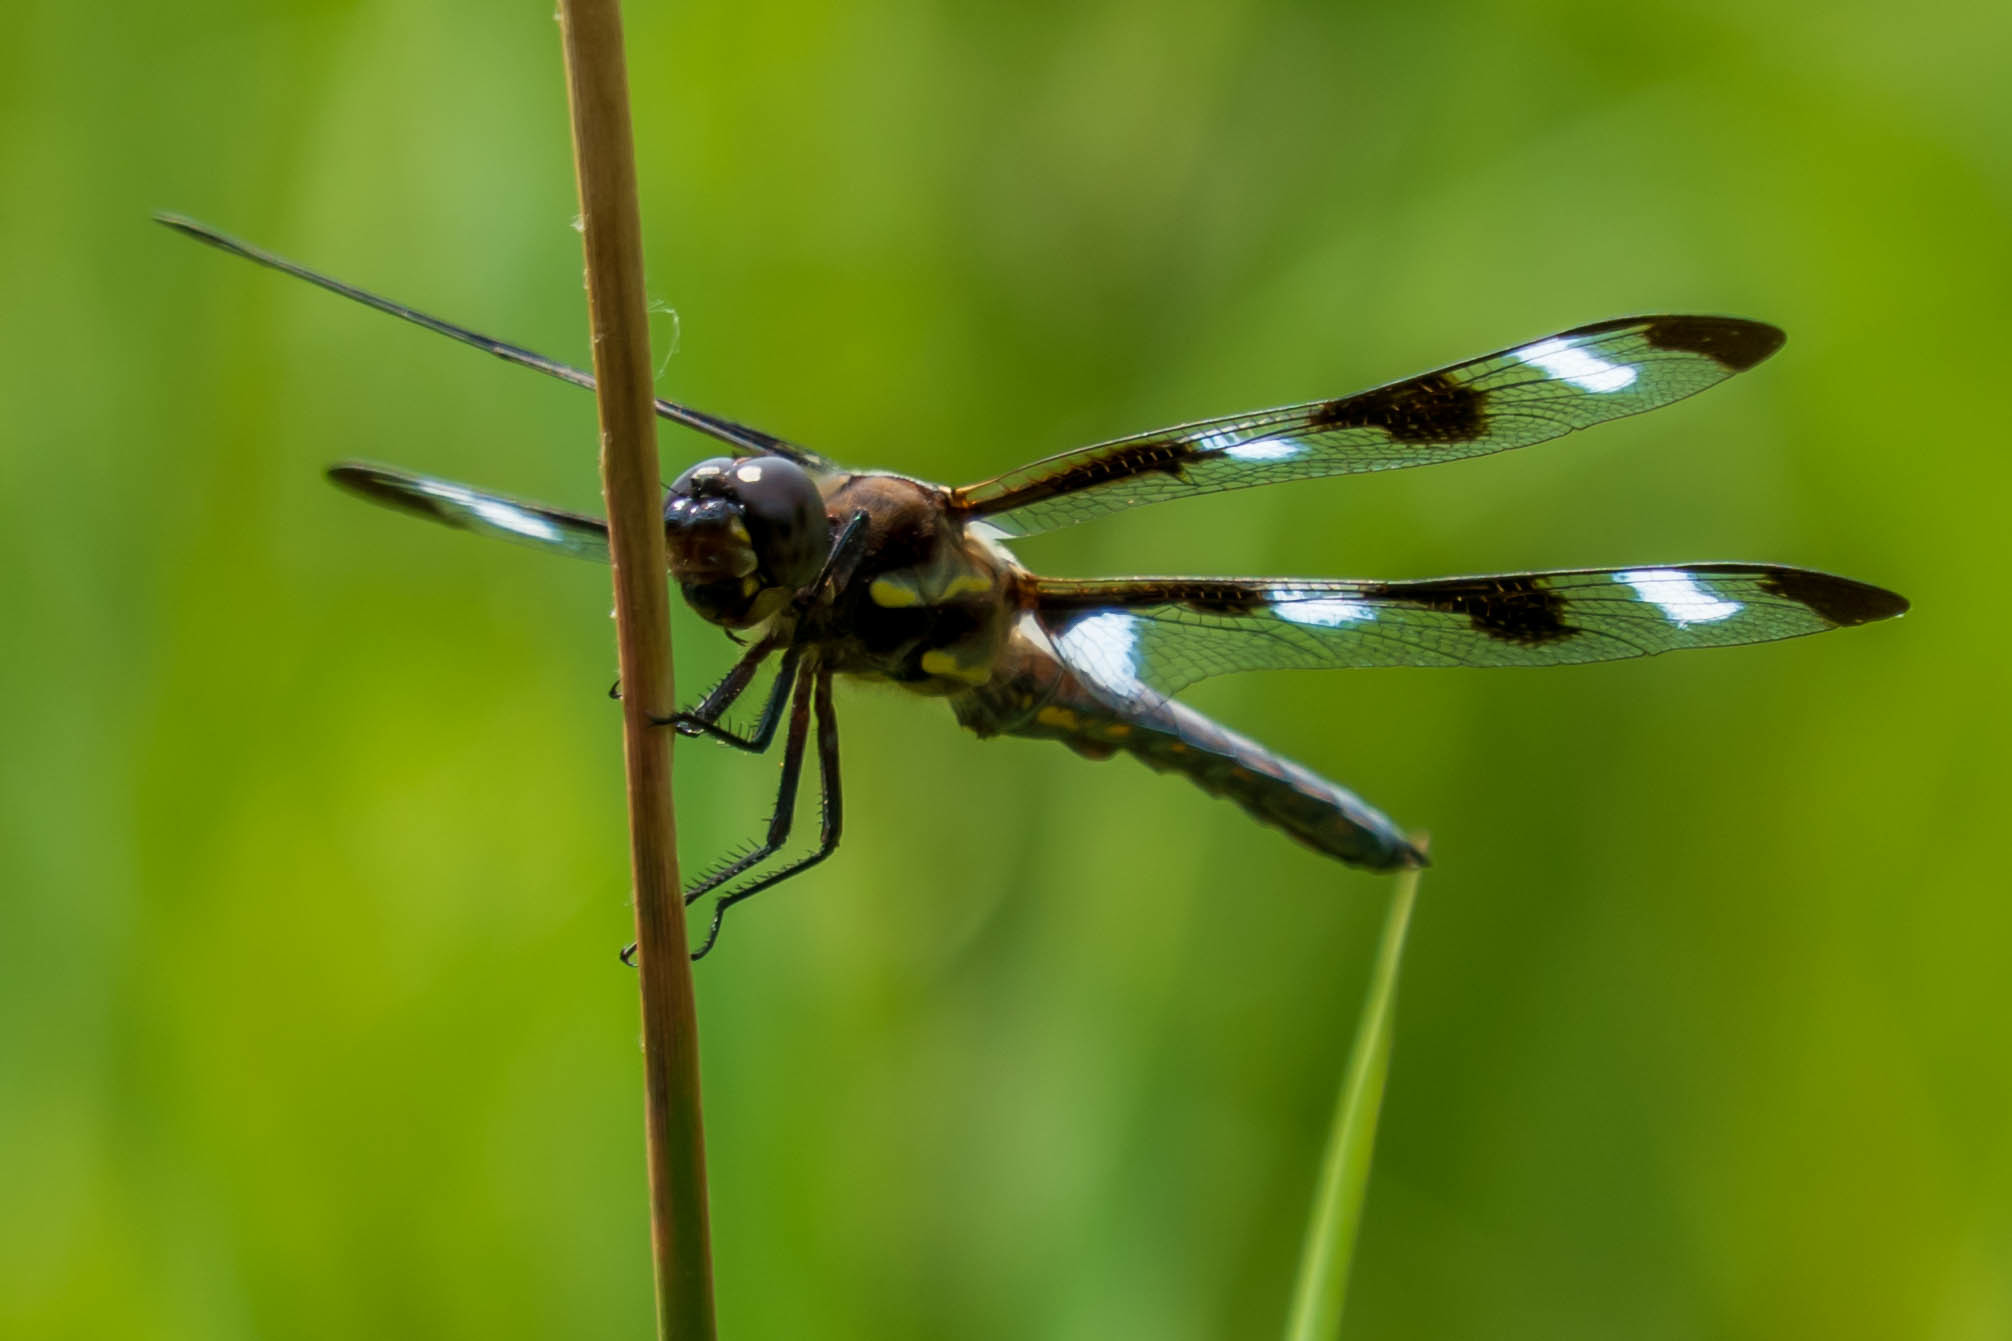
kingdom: Animalia
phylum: Arthropoda
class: Insecta
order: Odonata
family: Libellulidae
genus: Libellula
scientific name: Libellula pulchella
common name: Twelve-spotted skimmer
